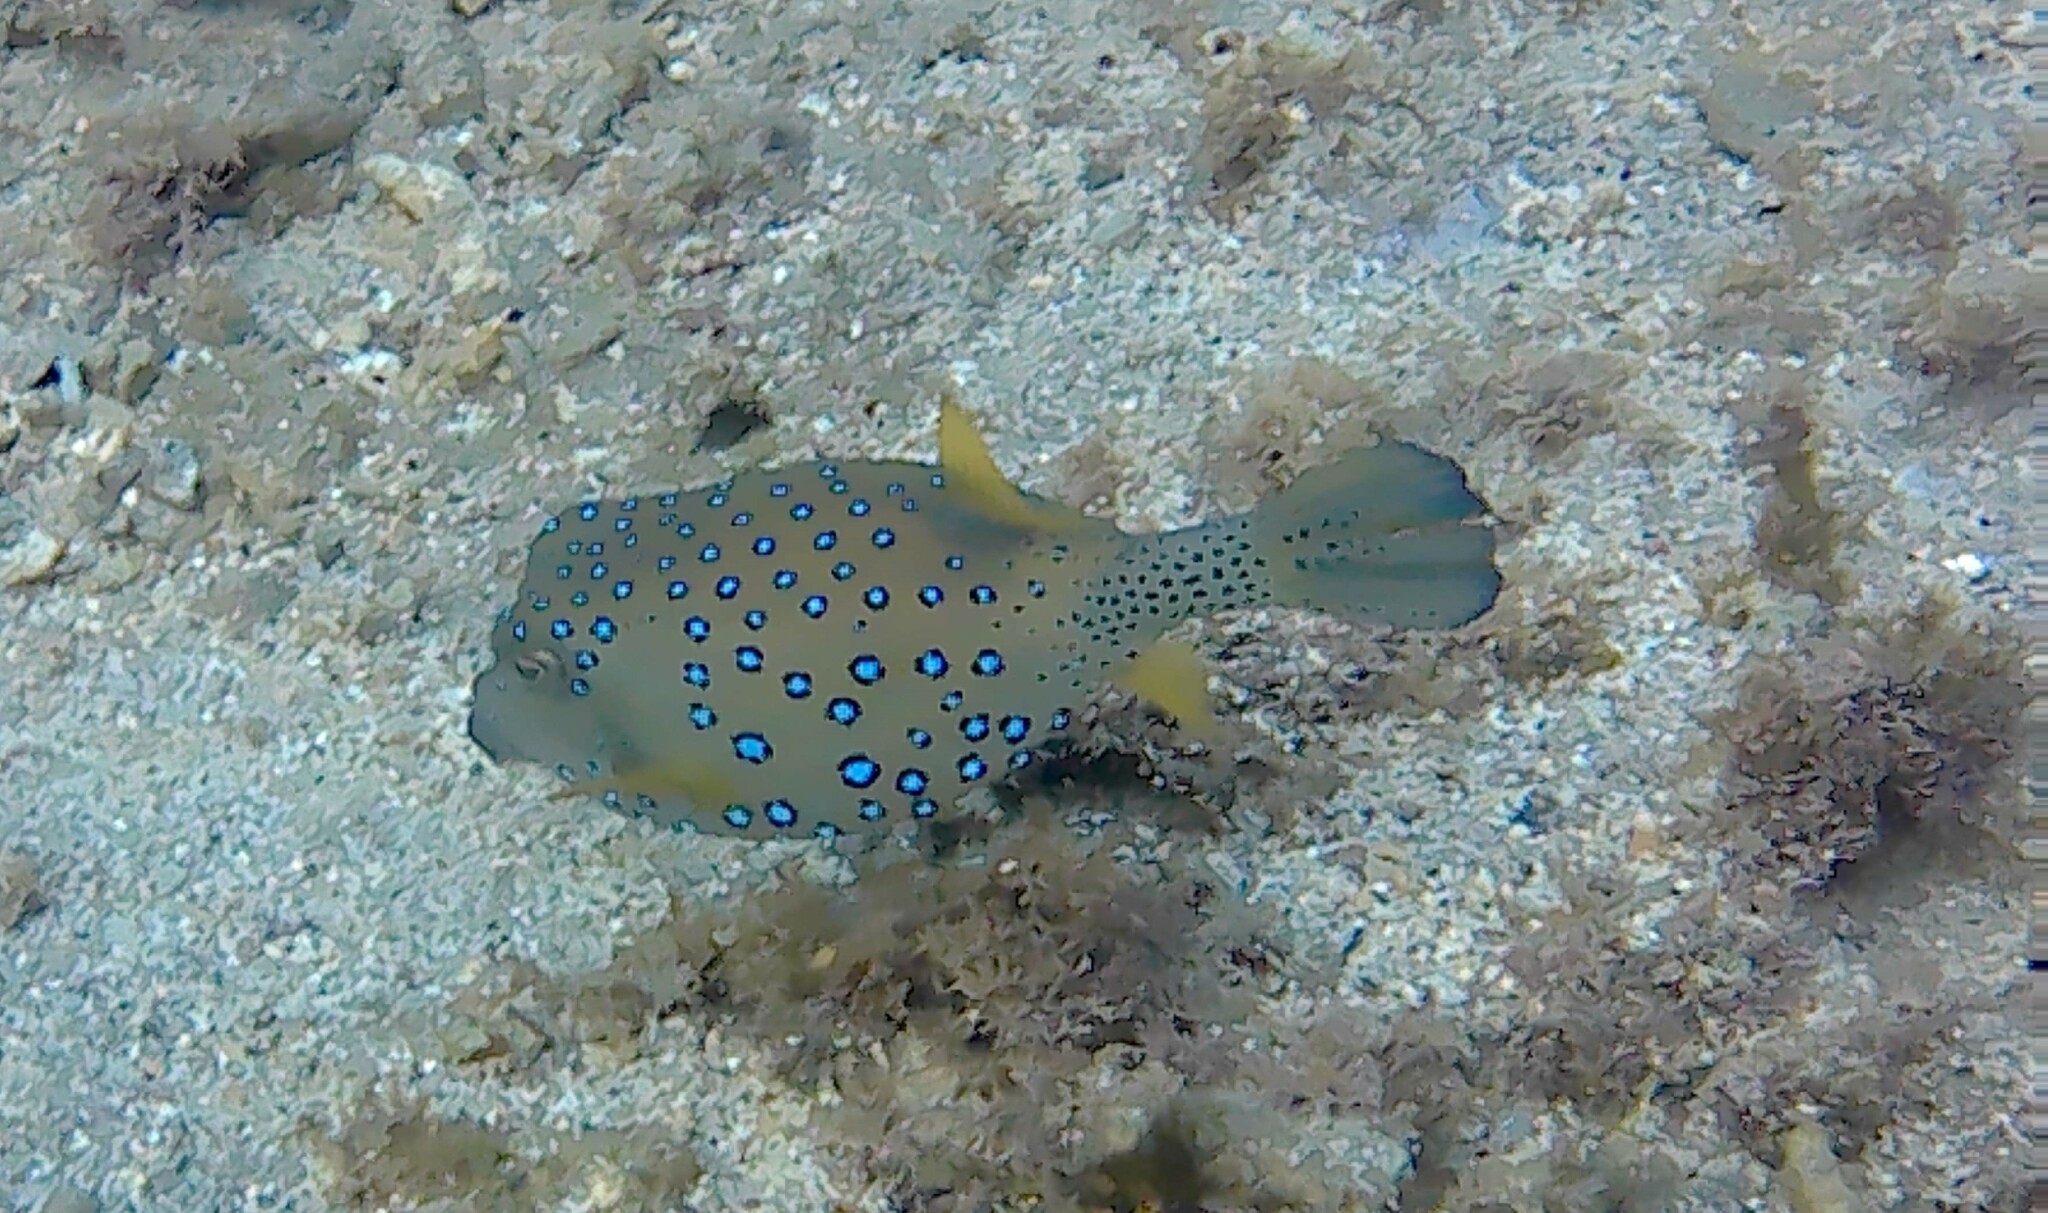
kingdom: Animalia
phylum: Chordata
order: Tetraodontiformes
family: Ostraciidae
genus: Ostracion
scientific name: Ostracion cubicus
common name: Cube trunkfish
